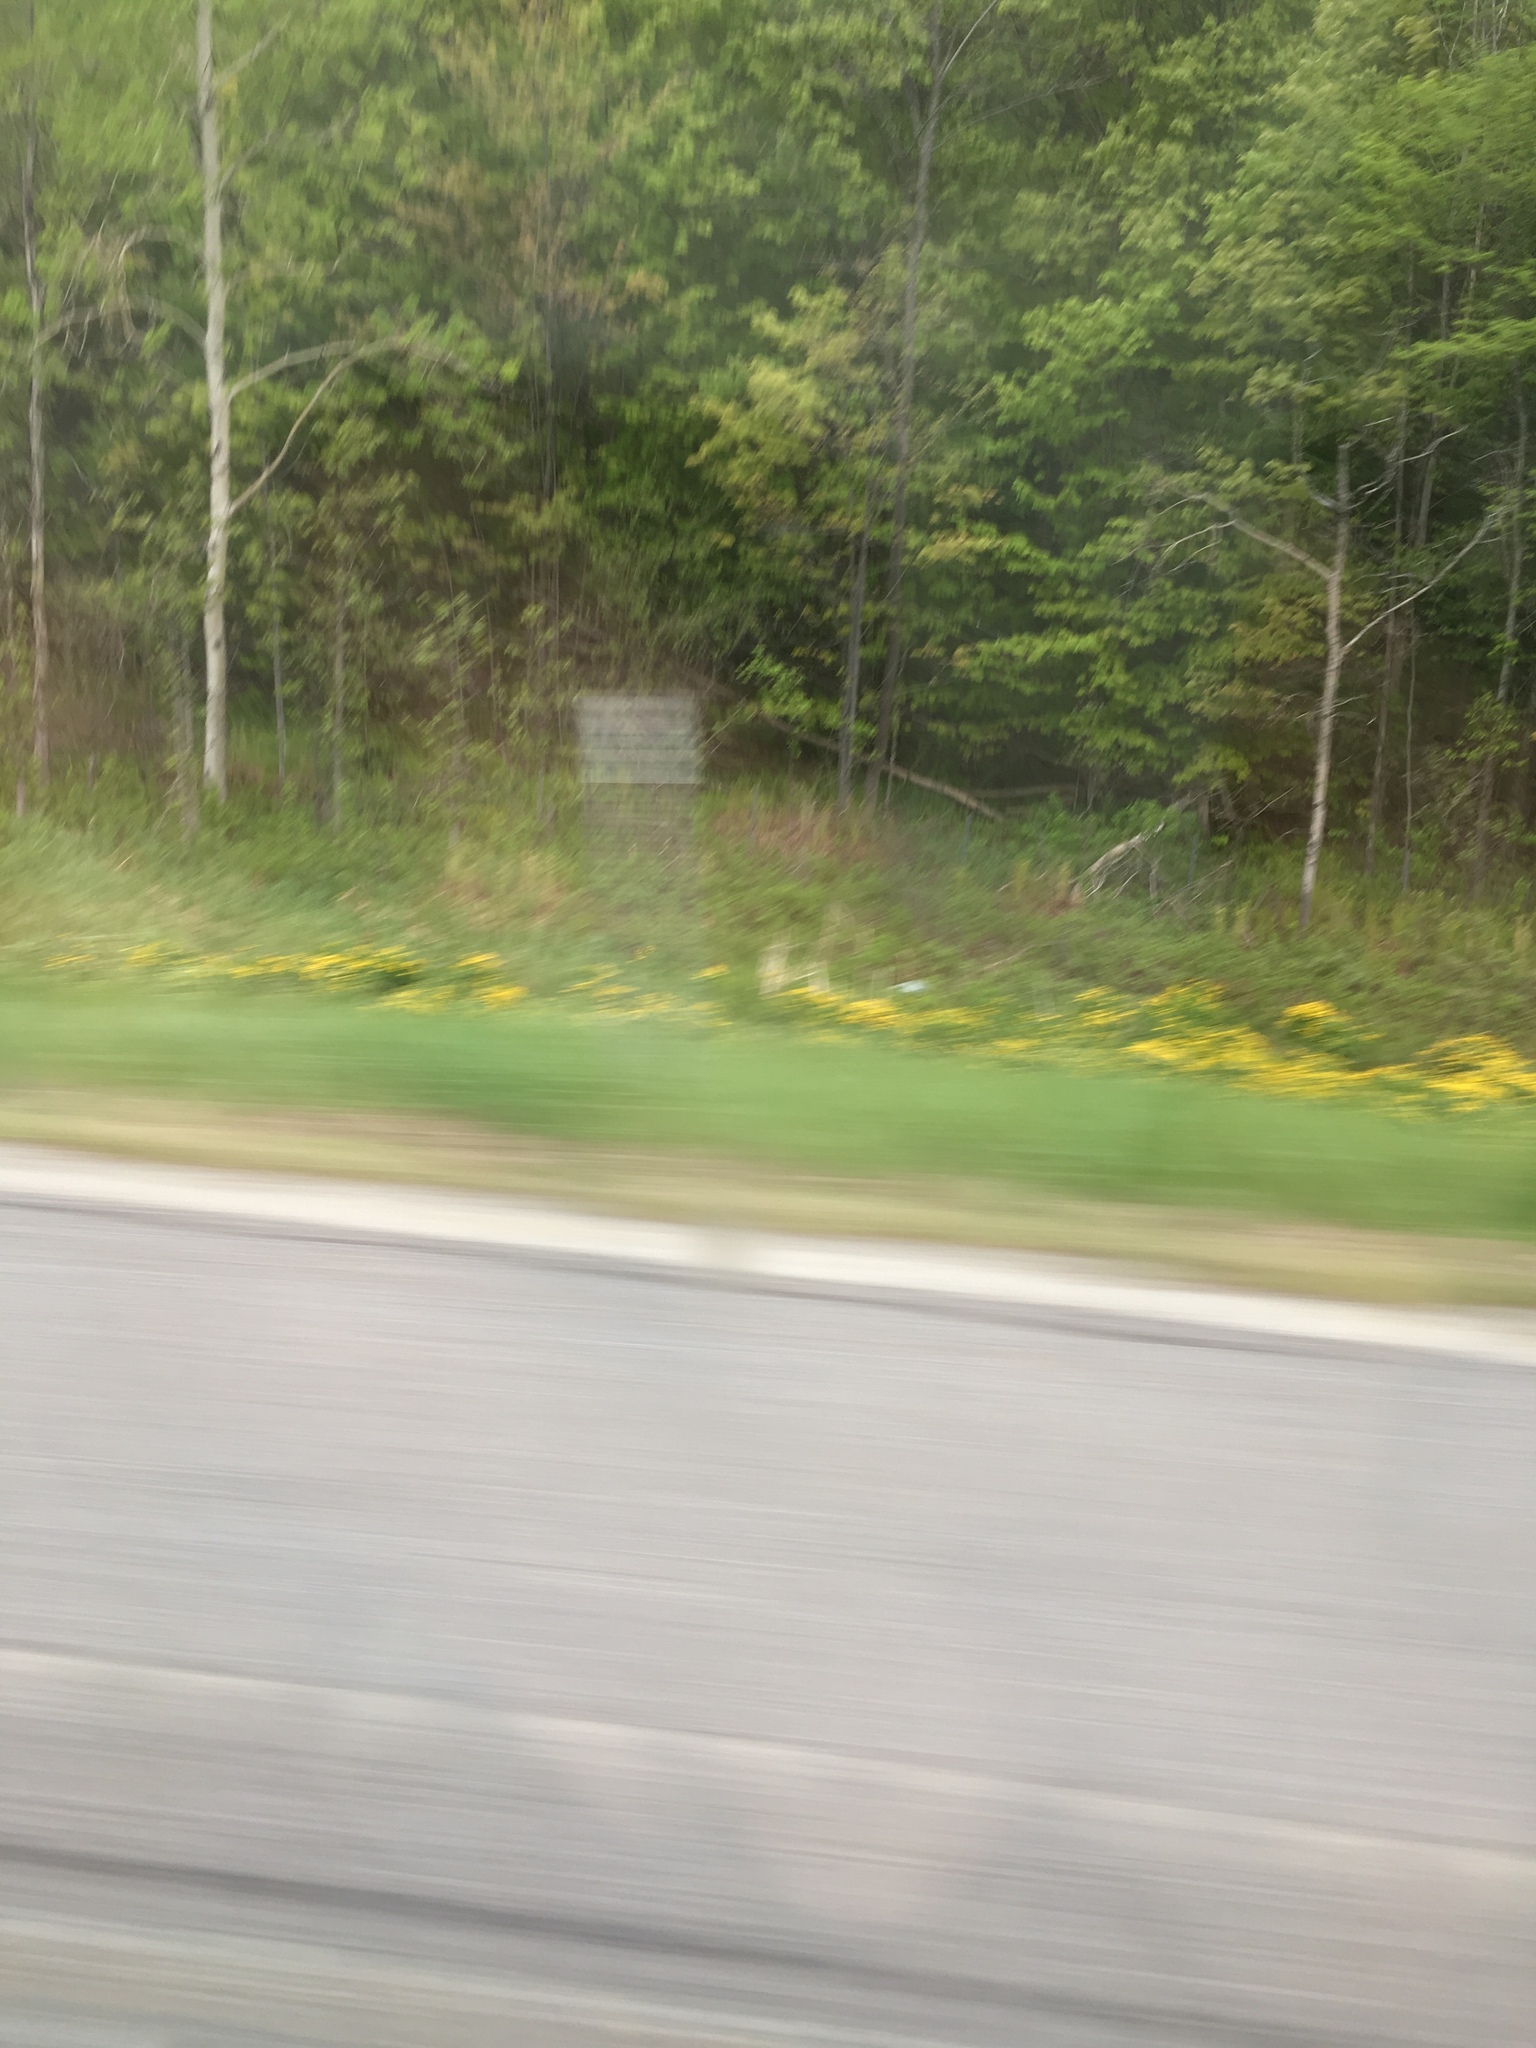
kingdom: Plantae
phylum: Tracheophyta
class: Magnoliopsida
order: Ranunculales
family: Ranunculaceae
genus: Caltha
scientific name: Caltha palustris
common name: Marsh marigold
